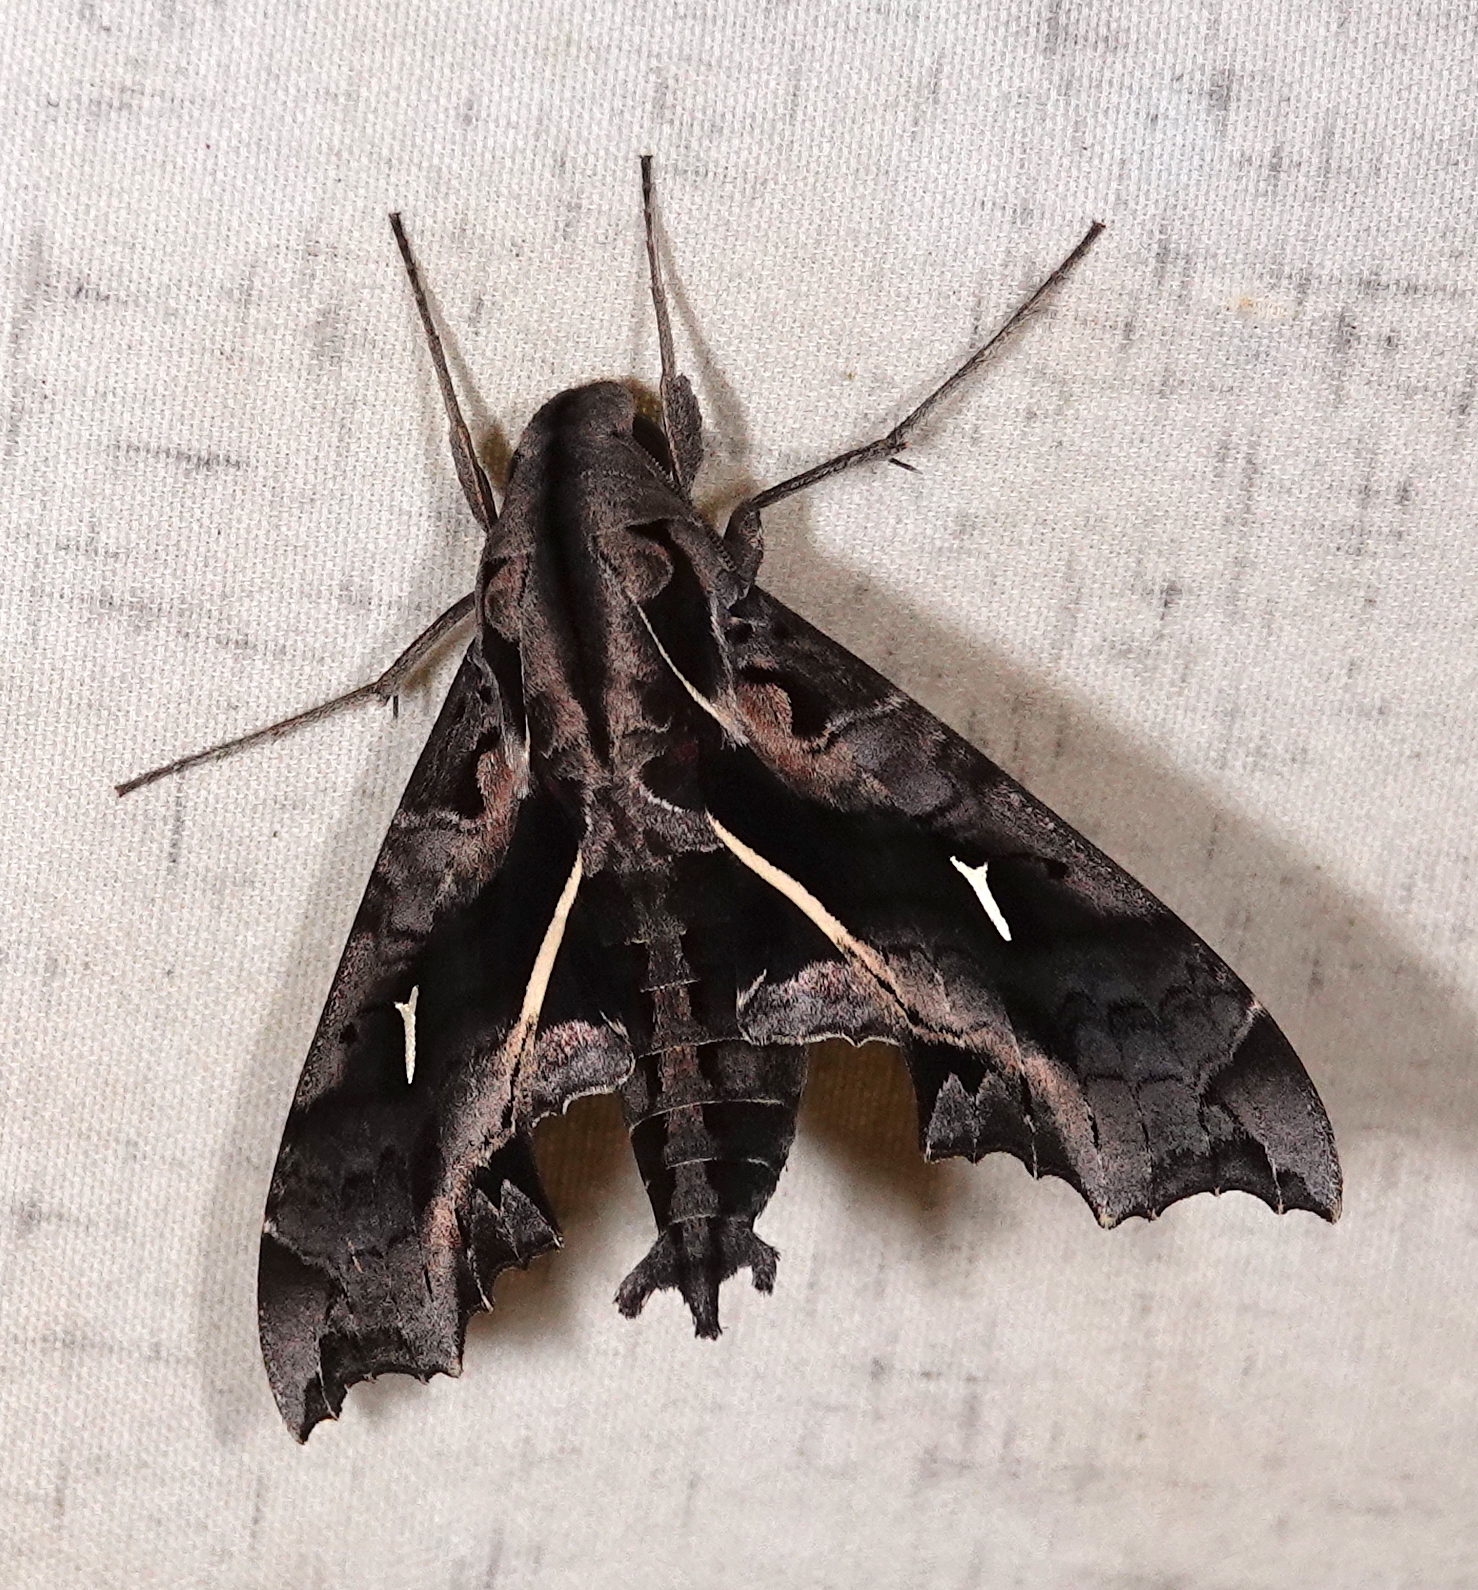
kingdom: Animalia
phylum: Arthropoda
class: Insecta
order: Lepidoptera
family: Sphingidae
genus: Hemeroplanes
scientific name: Hemeroplanes triptolemus
